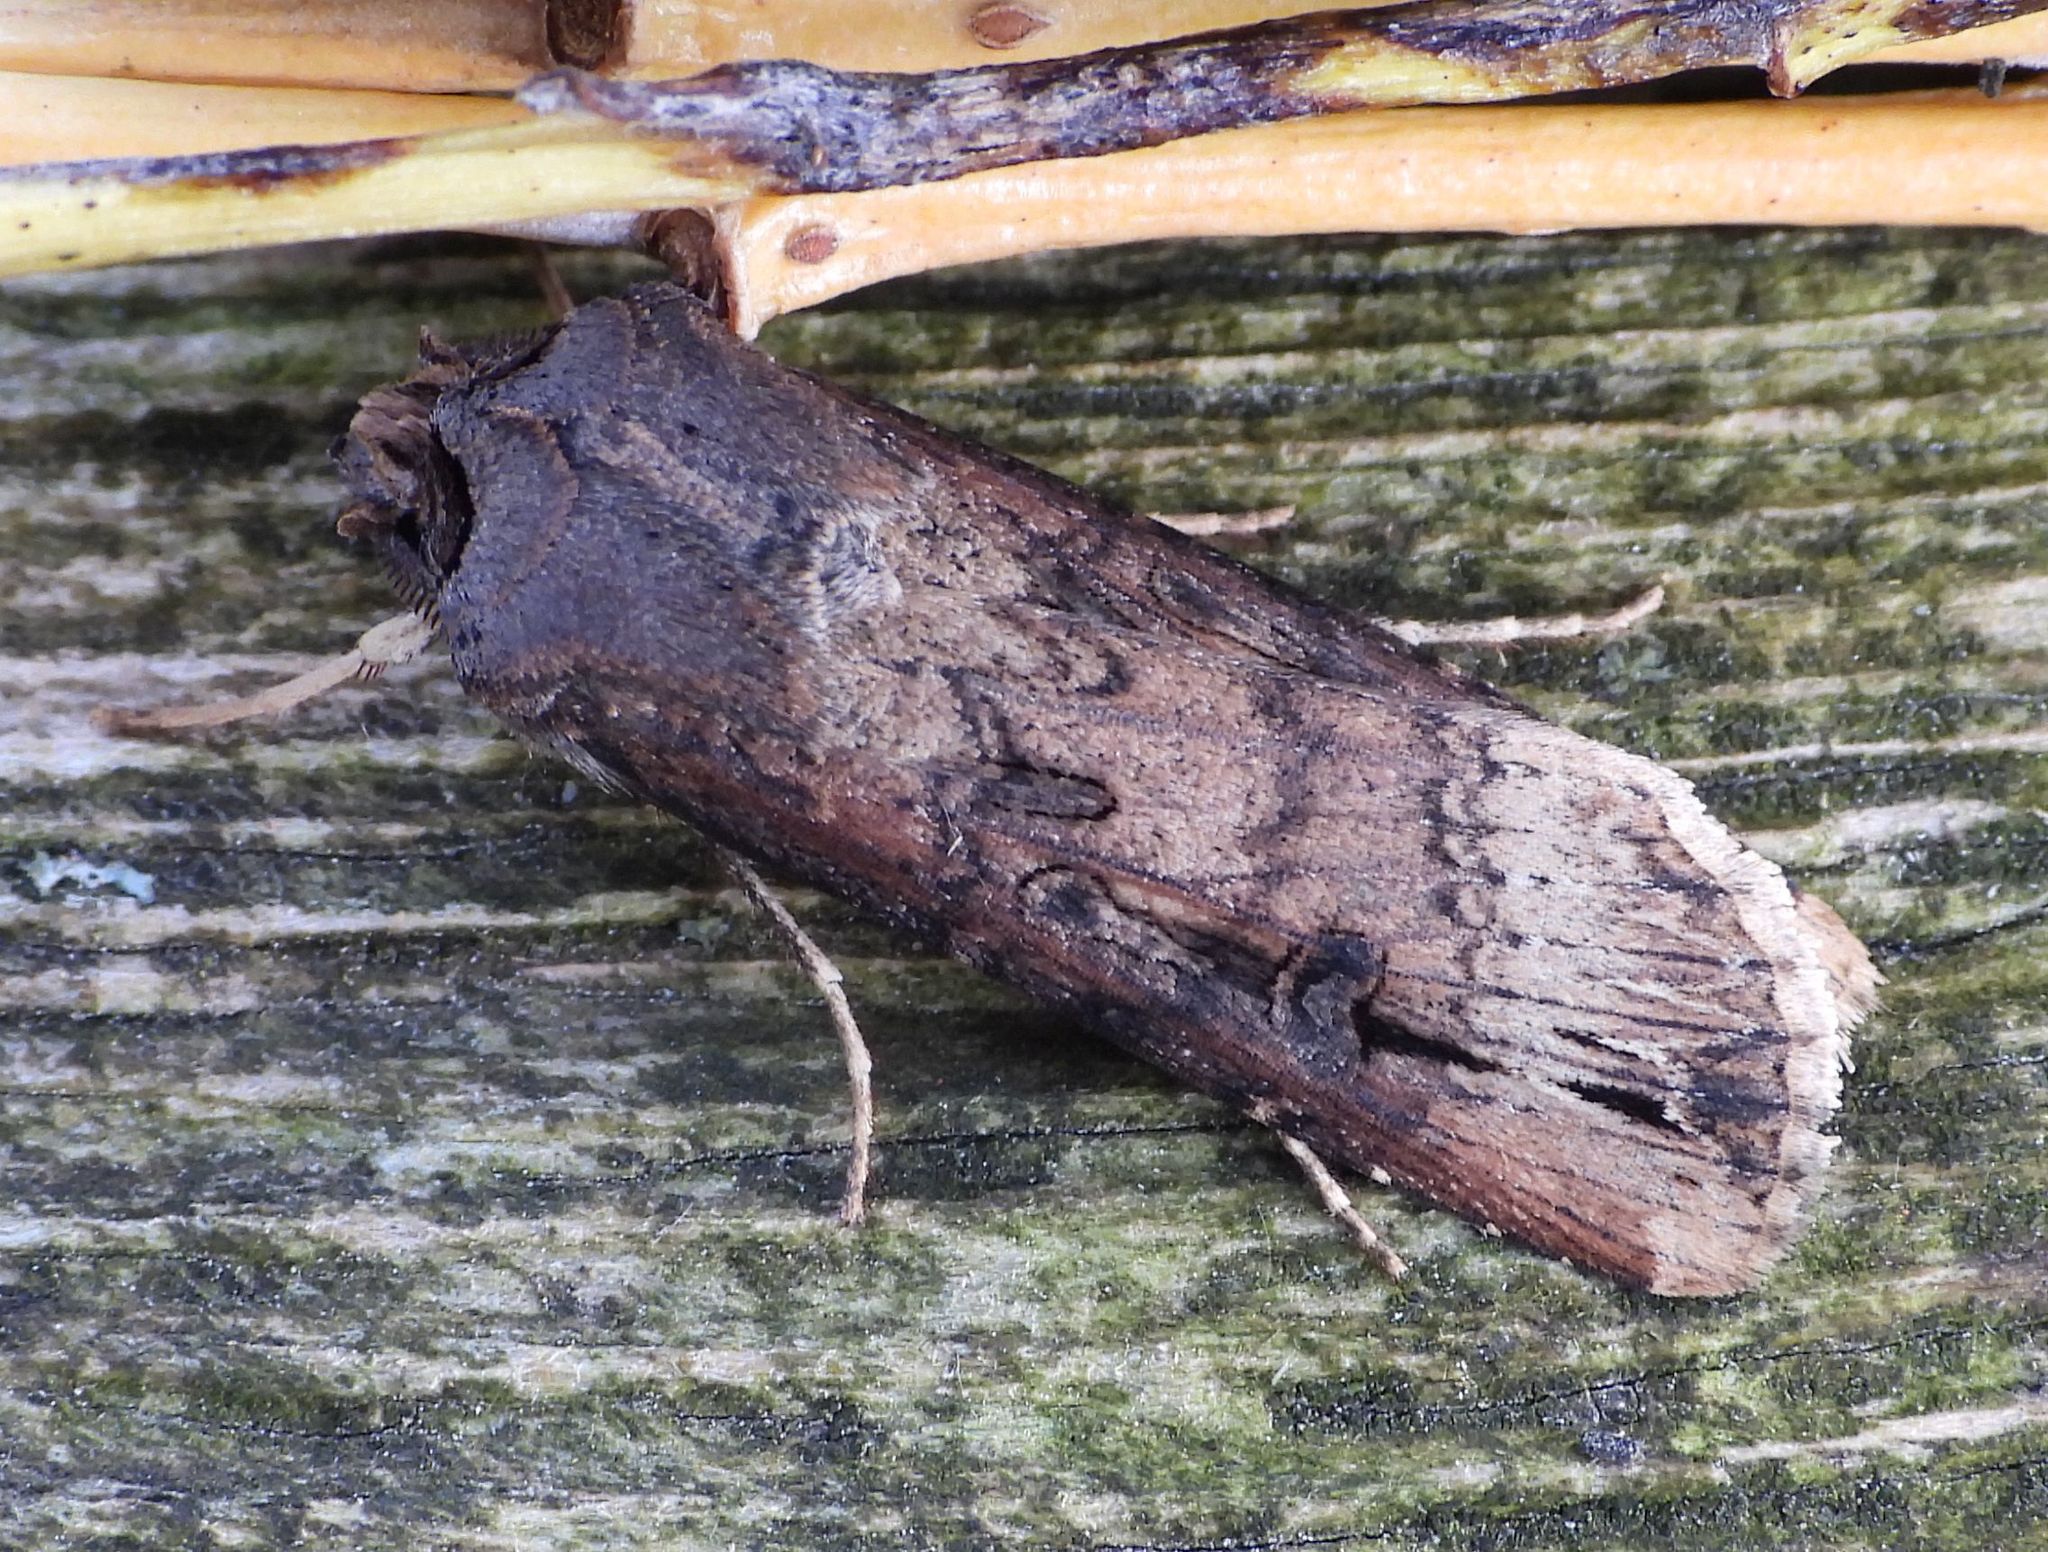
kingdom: Animalia
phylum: Arthropoda
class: Insecta
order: Lepidoptera
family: Noctuidae
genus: Agrotis
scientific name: Agrotis ipsilon
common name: Dark sword-grass
